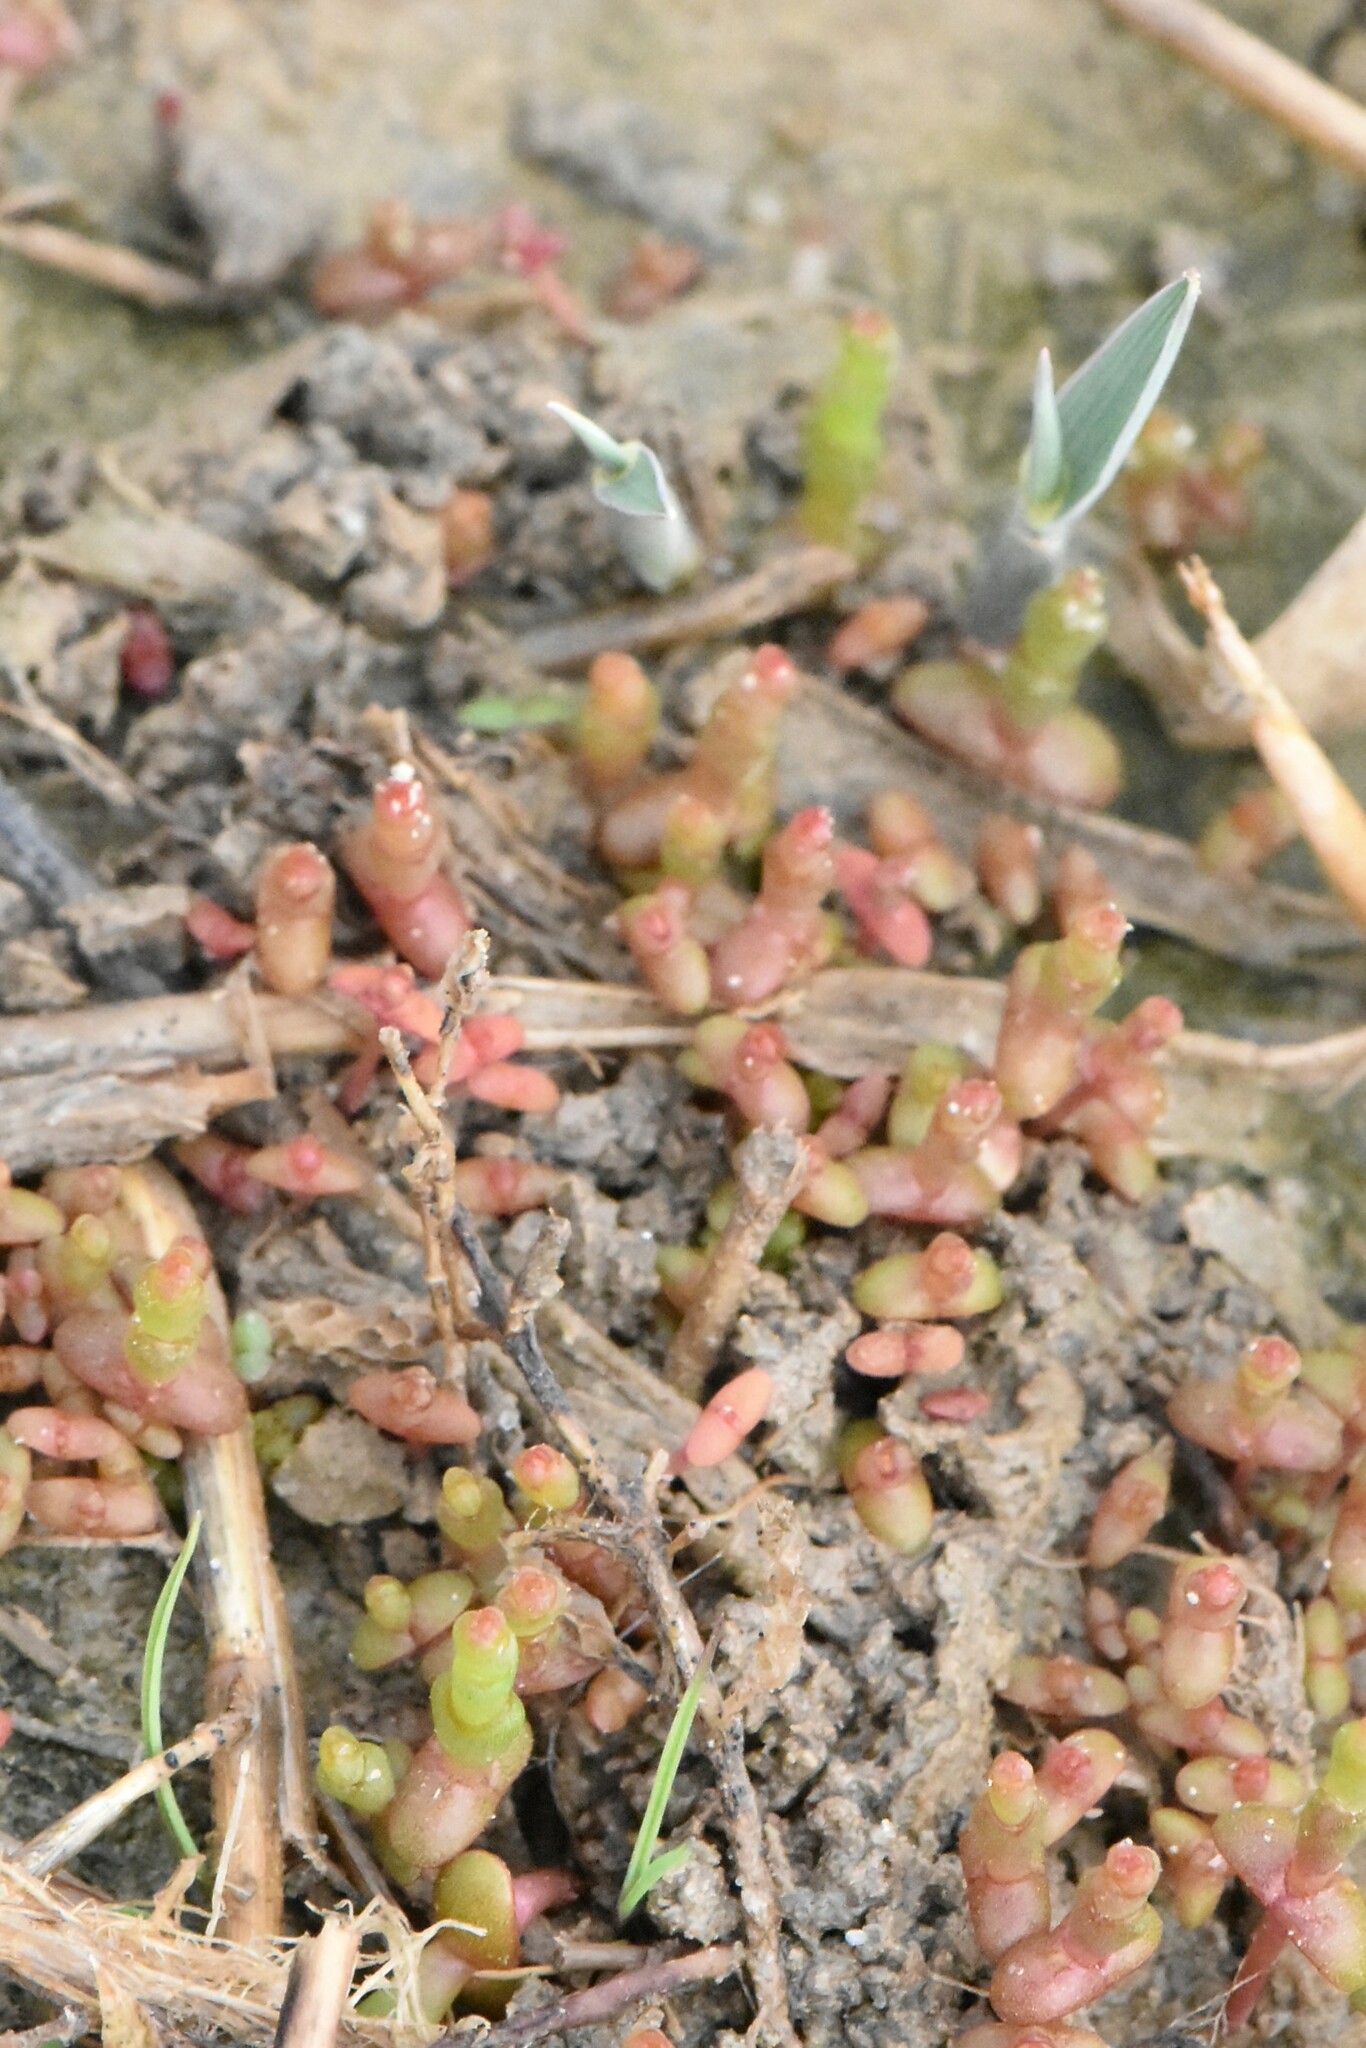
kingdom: Plantae
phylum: Tracheophyta
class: Magnoliopsida
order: Caryophyllales
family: Amaranthaceae
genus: Salicornia
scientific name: Salicornia perennans
